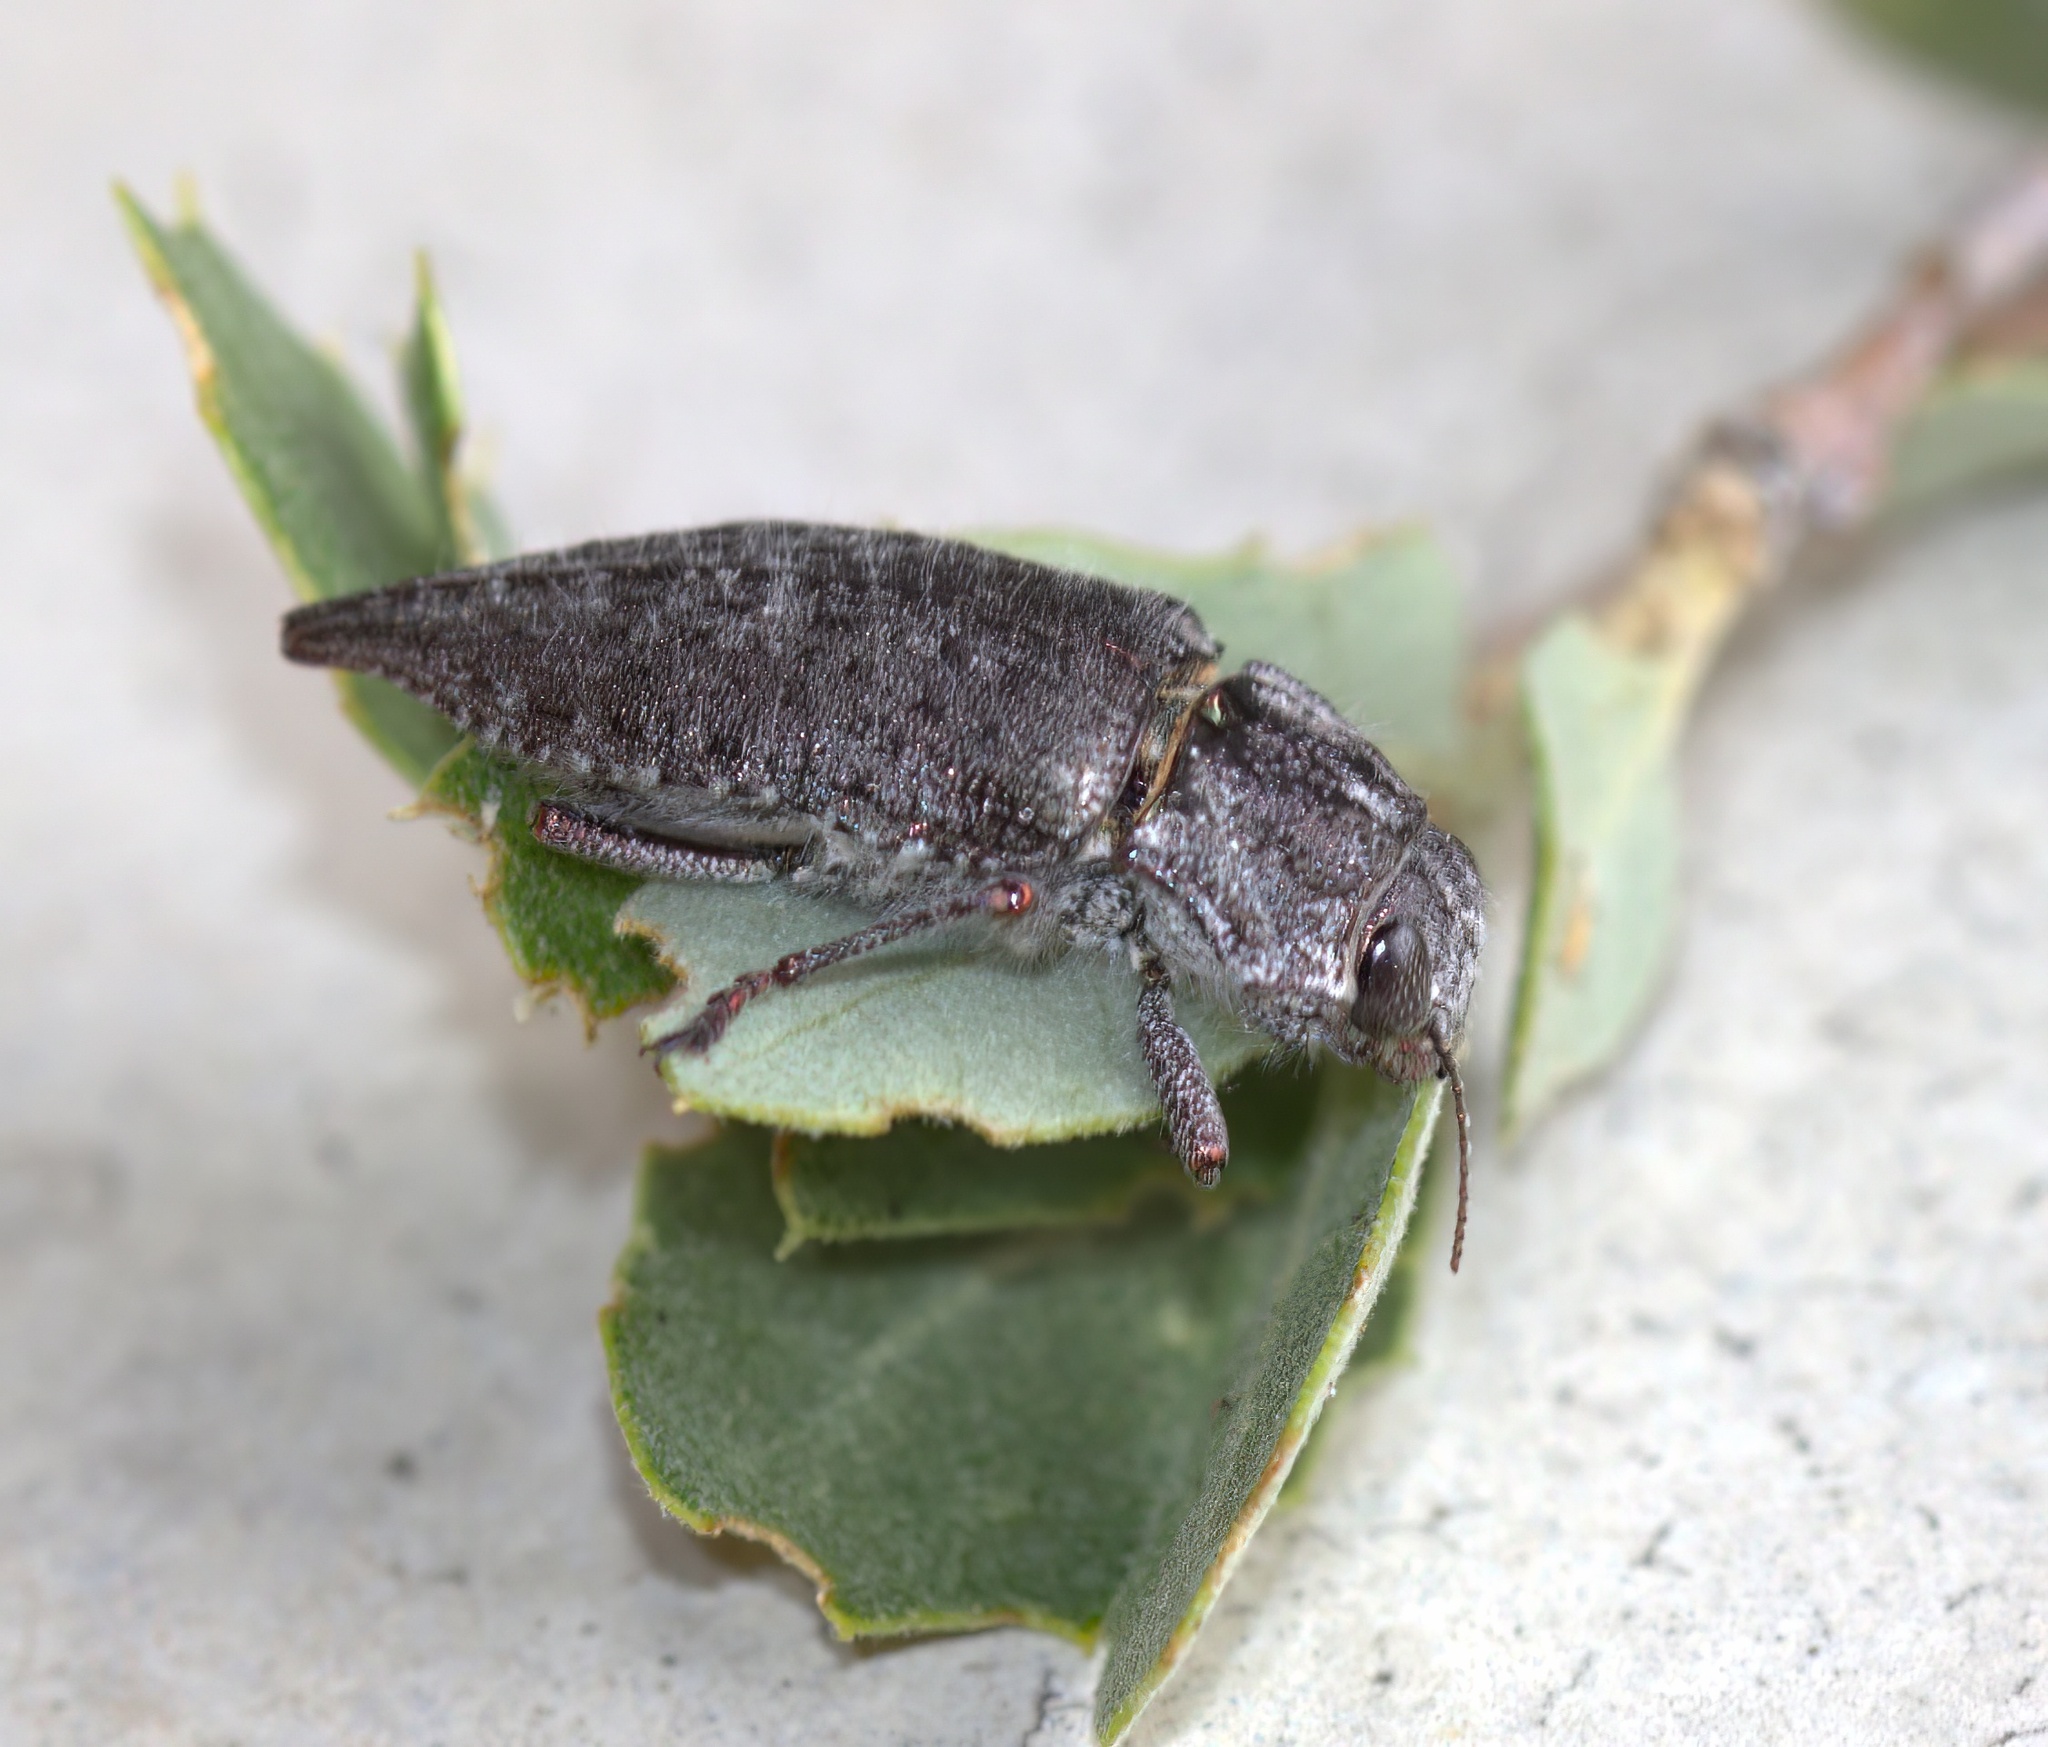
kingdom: Animalia
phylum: Arthropoda
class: Insecta
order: Coleoptera
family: Buprestidae
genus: Dicerca
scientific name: Dicerca querci
